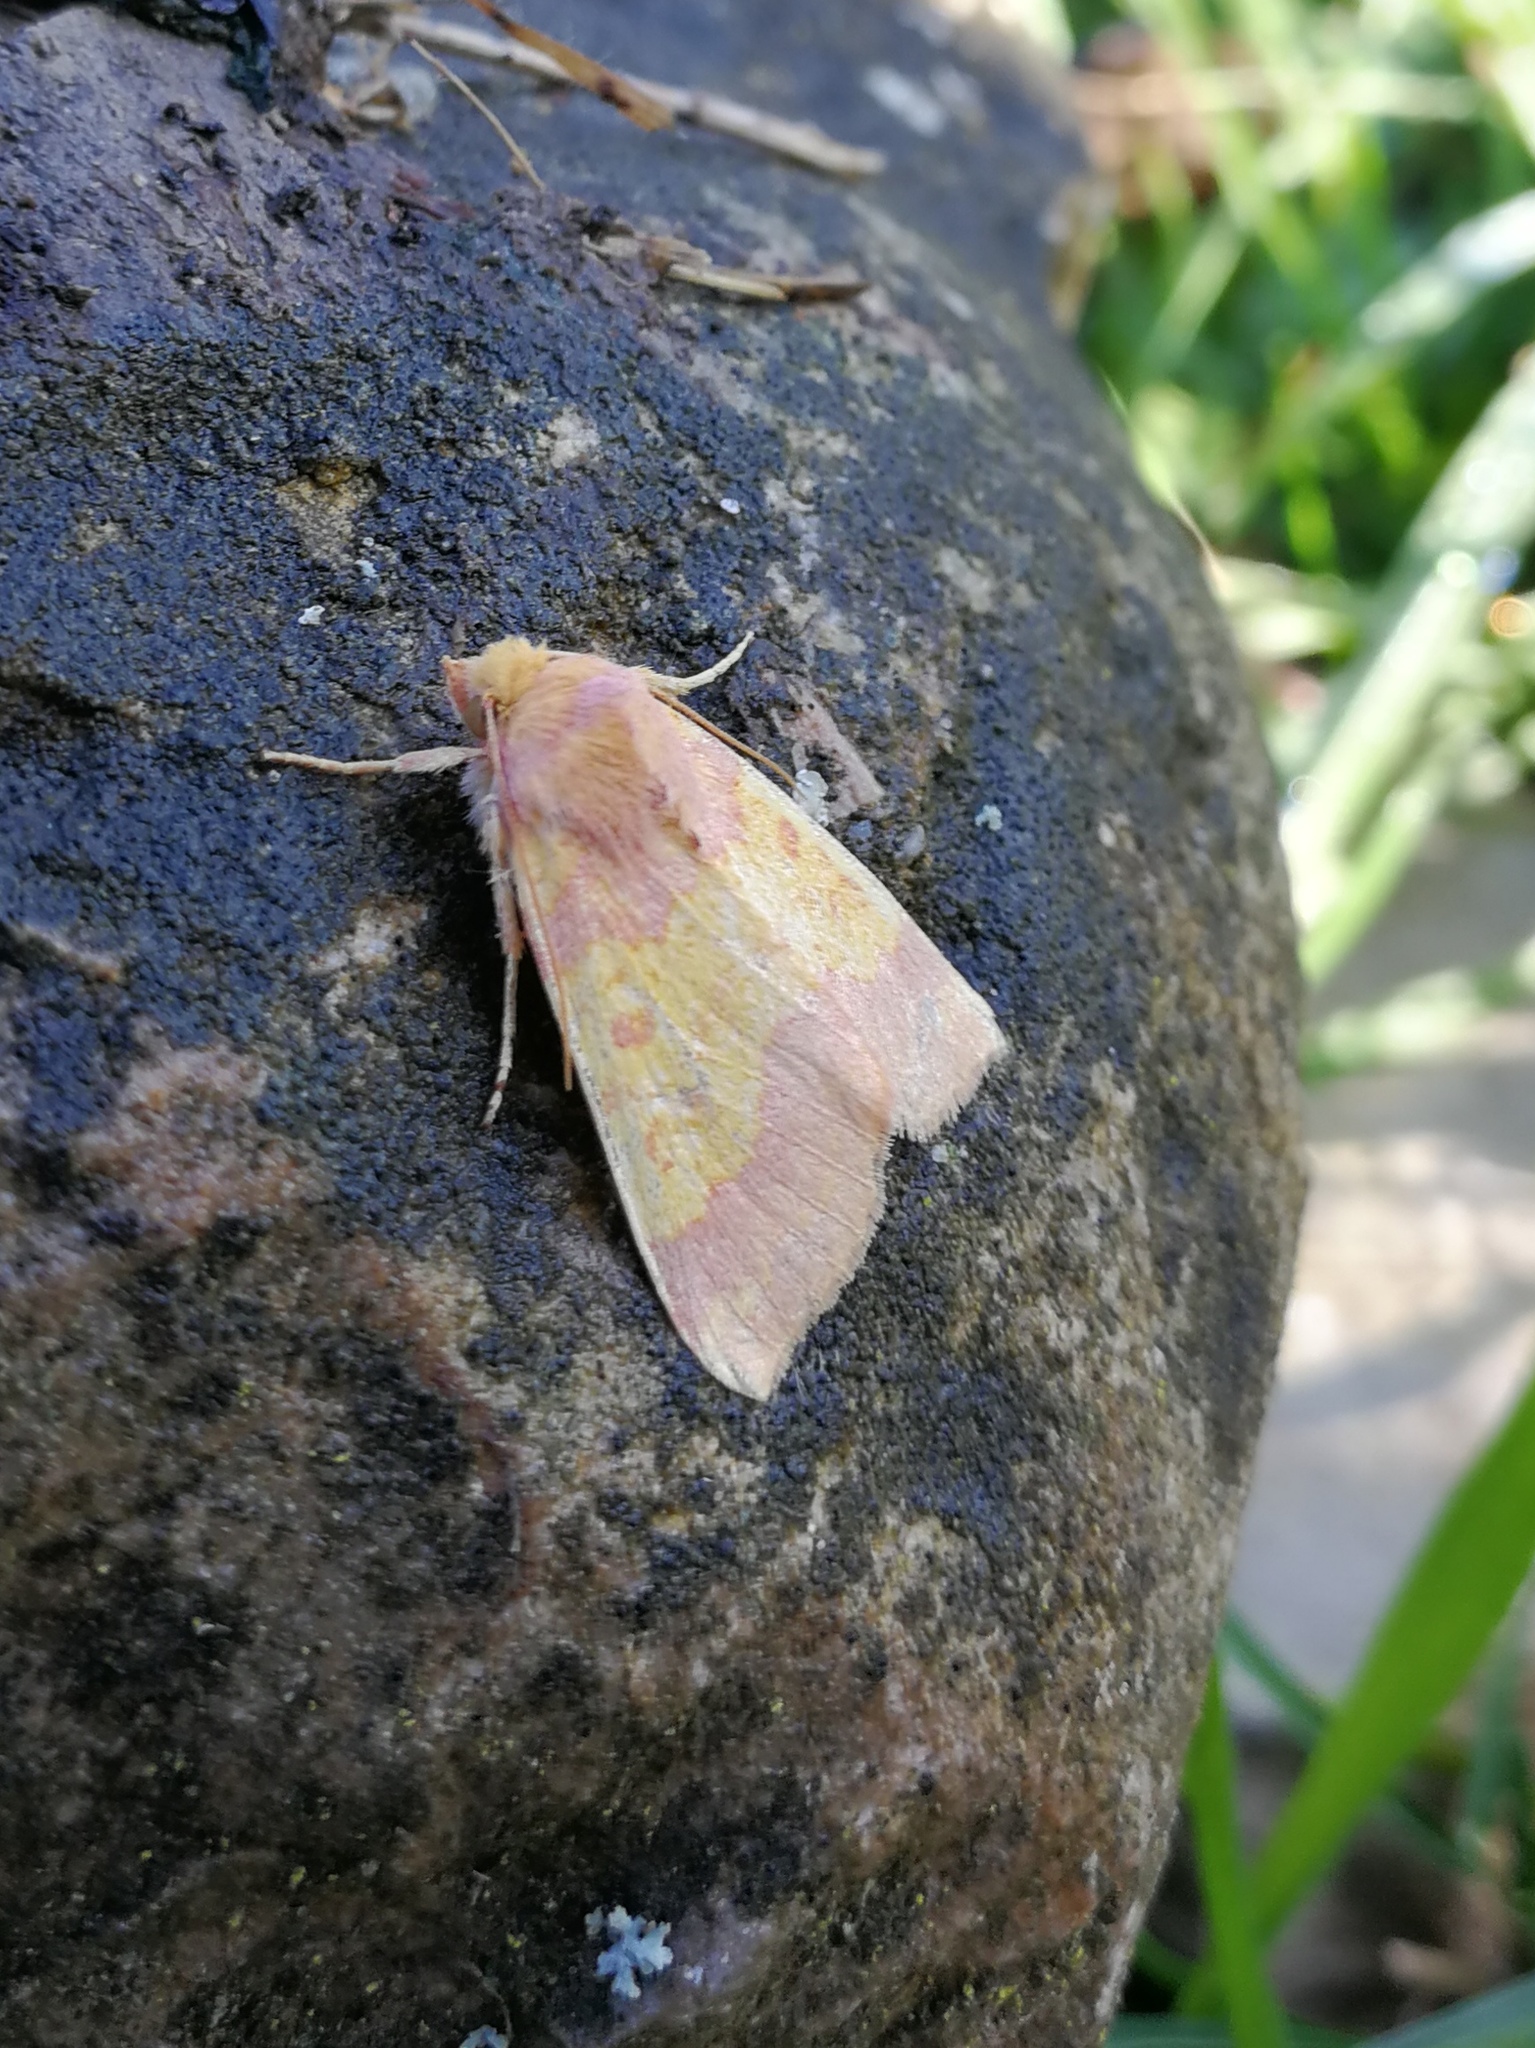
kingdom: Animalia
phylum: Arthropoda
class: Insecta
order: Lepidoptera
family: Noctuidae
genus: Tiliacea
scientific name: Tiliacea aurago
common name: Barred sallow
